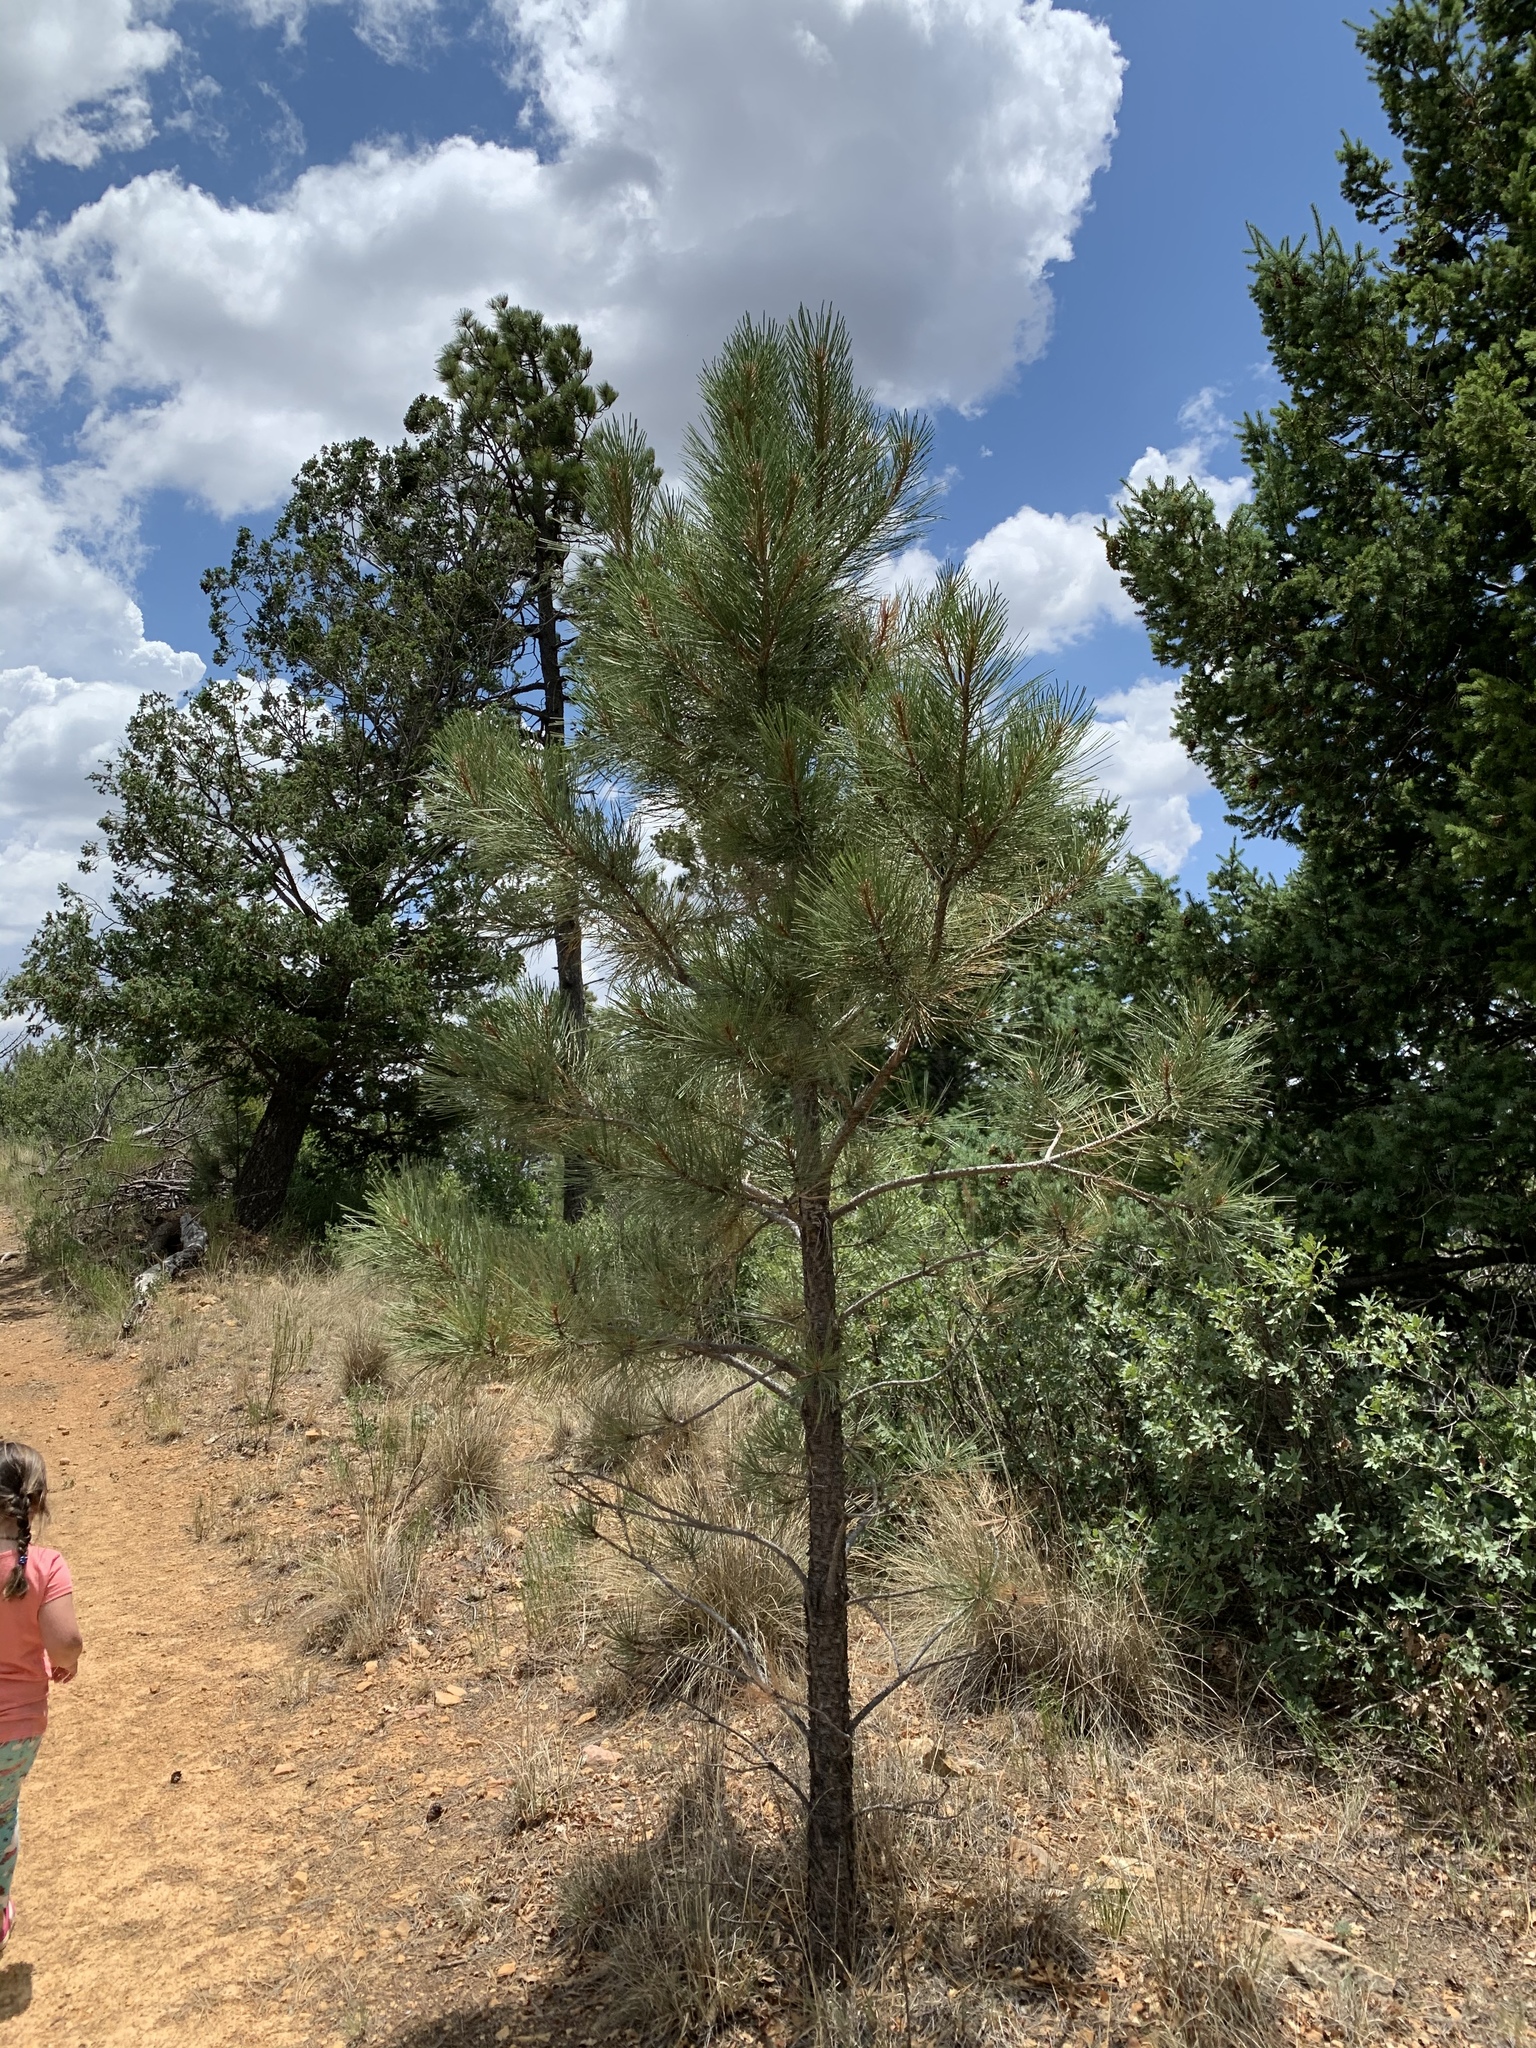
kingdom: Plantae
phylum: Tracheophyta
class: Pinopsida
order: Pinales
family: Pinaceae
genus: Pinus
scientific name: Pinus ponderosa
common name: Western yellow-pine
